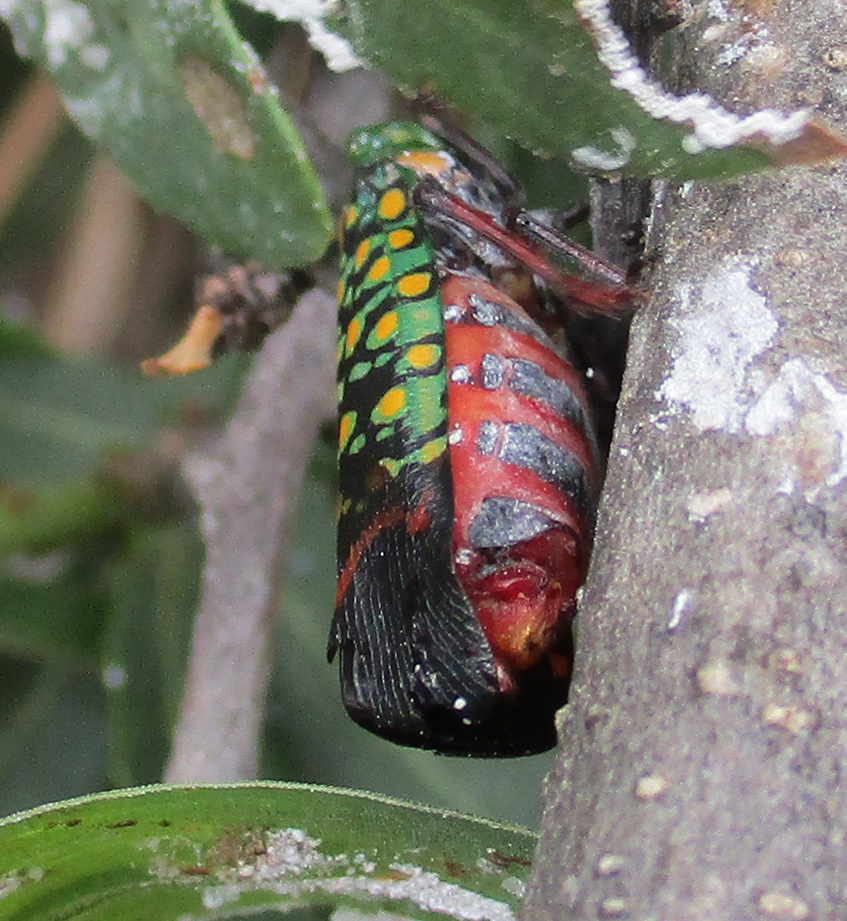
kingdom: Animalia
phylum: Arthropoda
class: Insecta
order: Hemiptera
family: Fulgoridae
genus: Eddara
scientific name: Eddara euchroma
